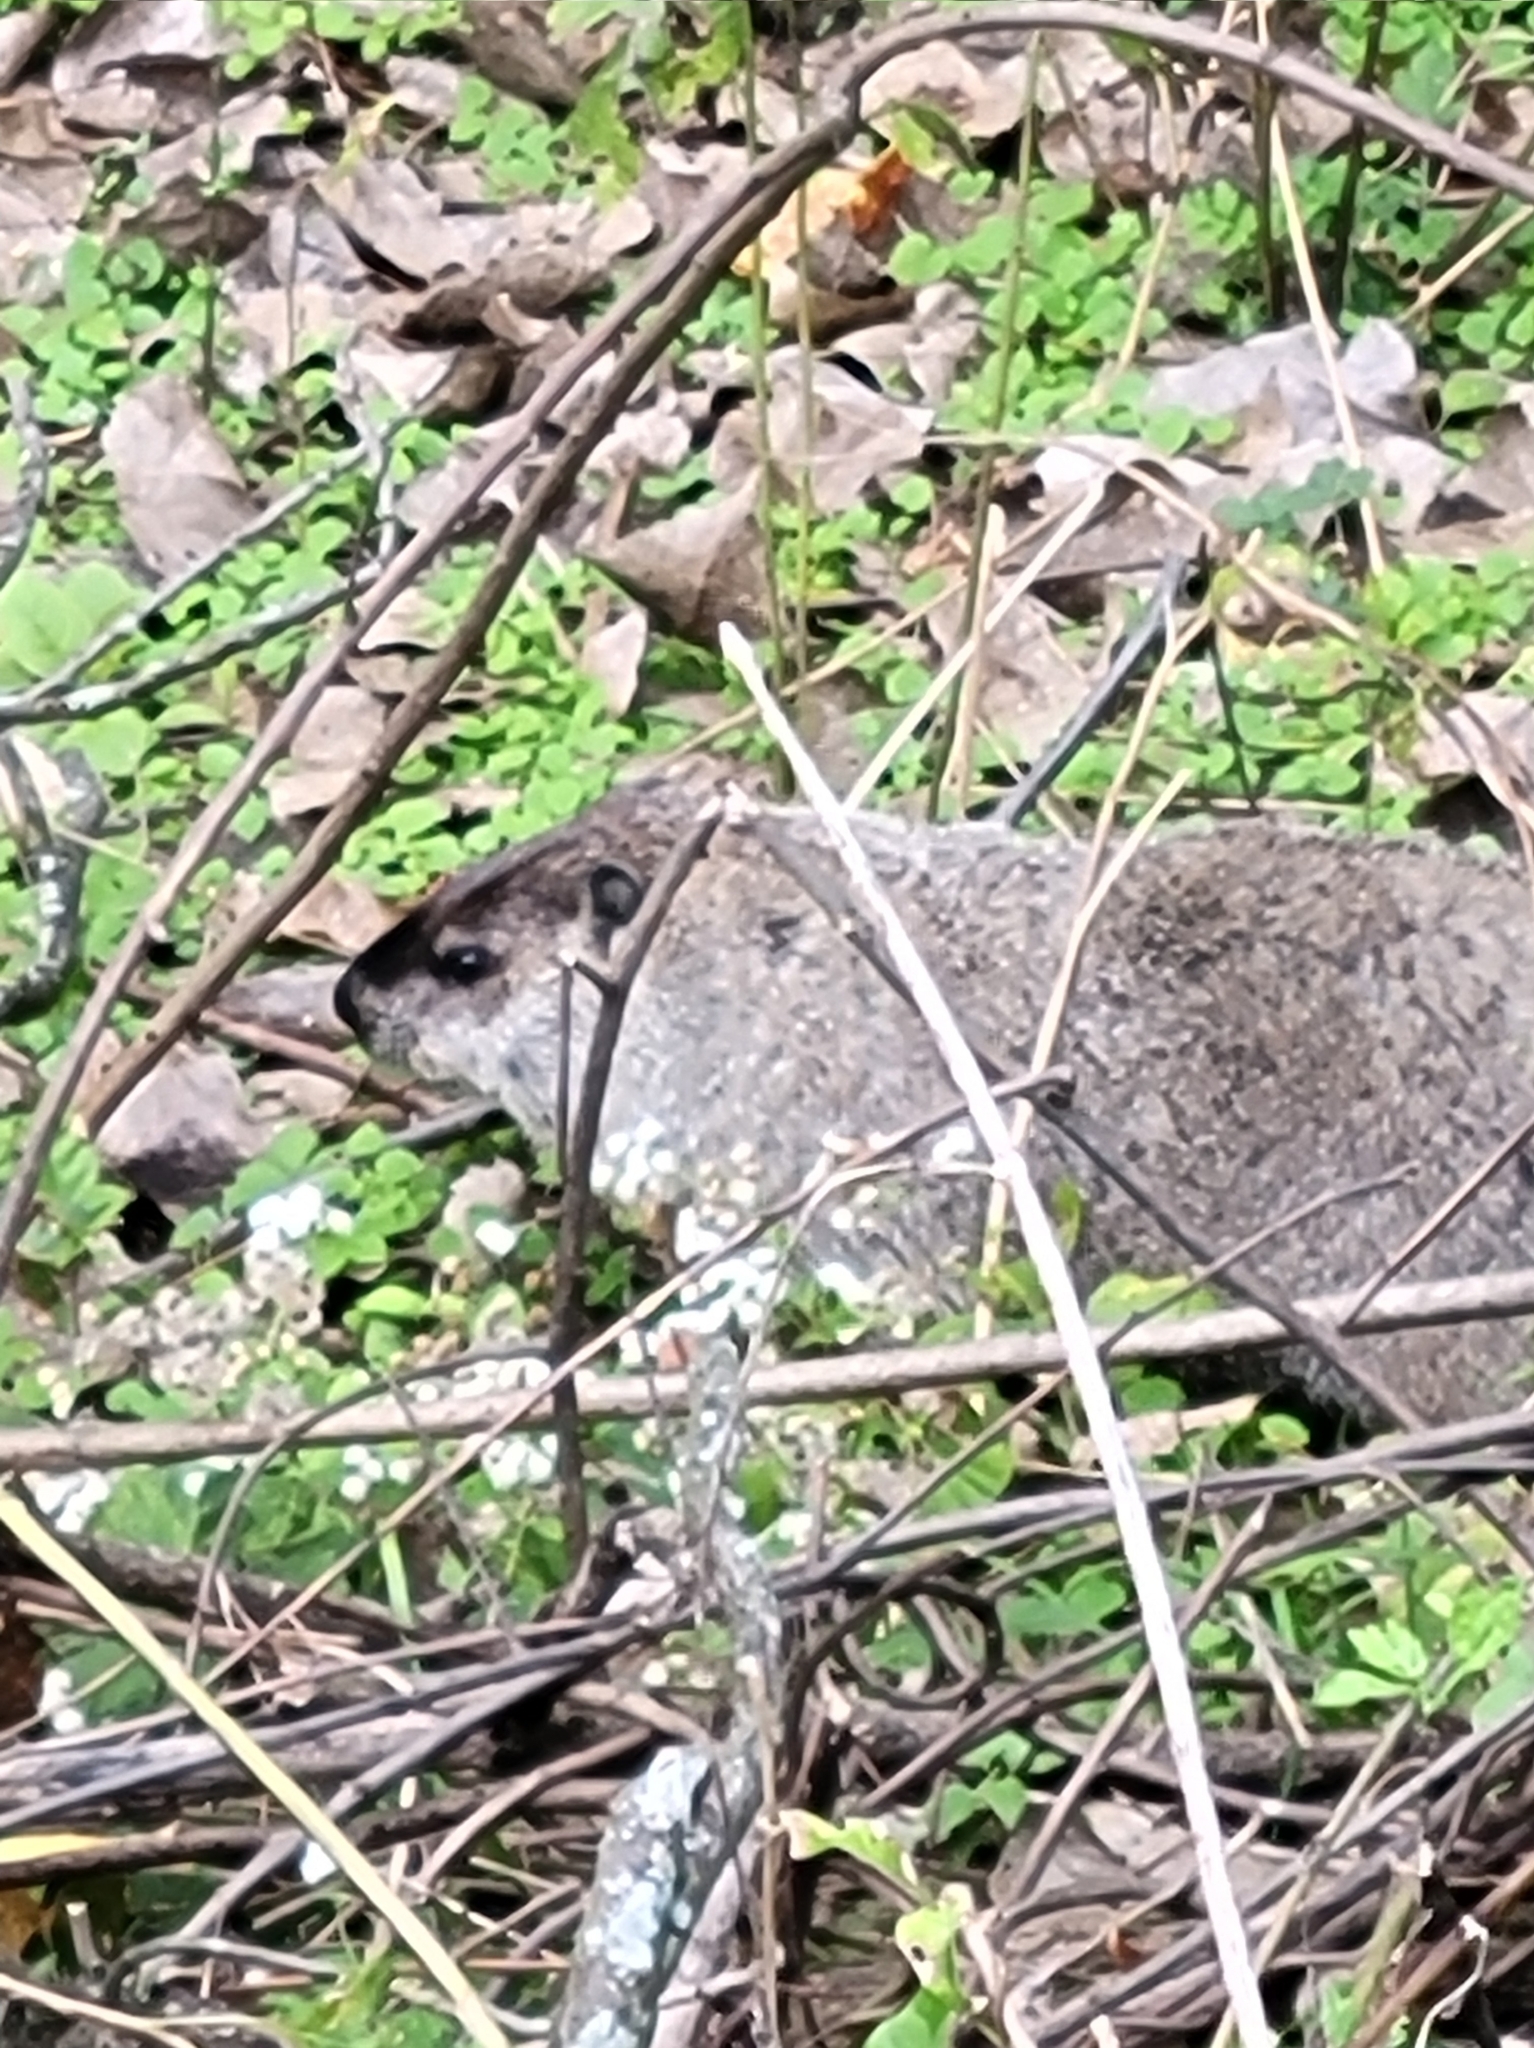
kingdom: Animalia
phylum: Chordata
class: Mammalia
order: Rodentia
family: Sciuridae
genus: Marmota
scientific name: Marmota monax
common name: Groundhog
